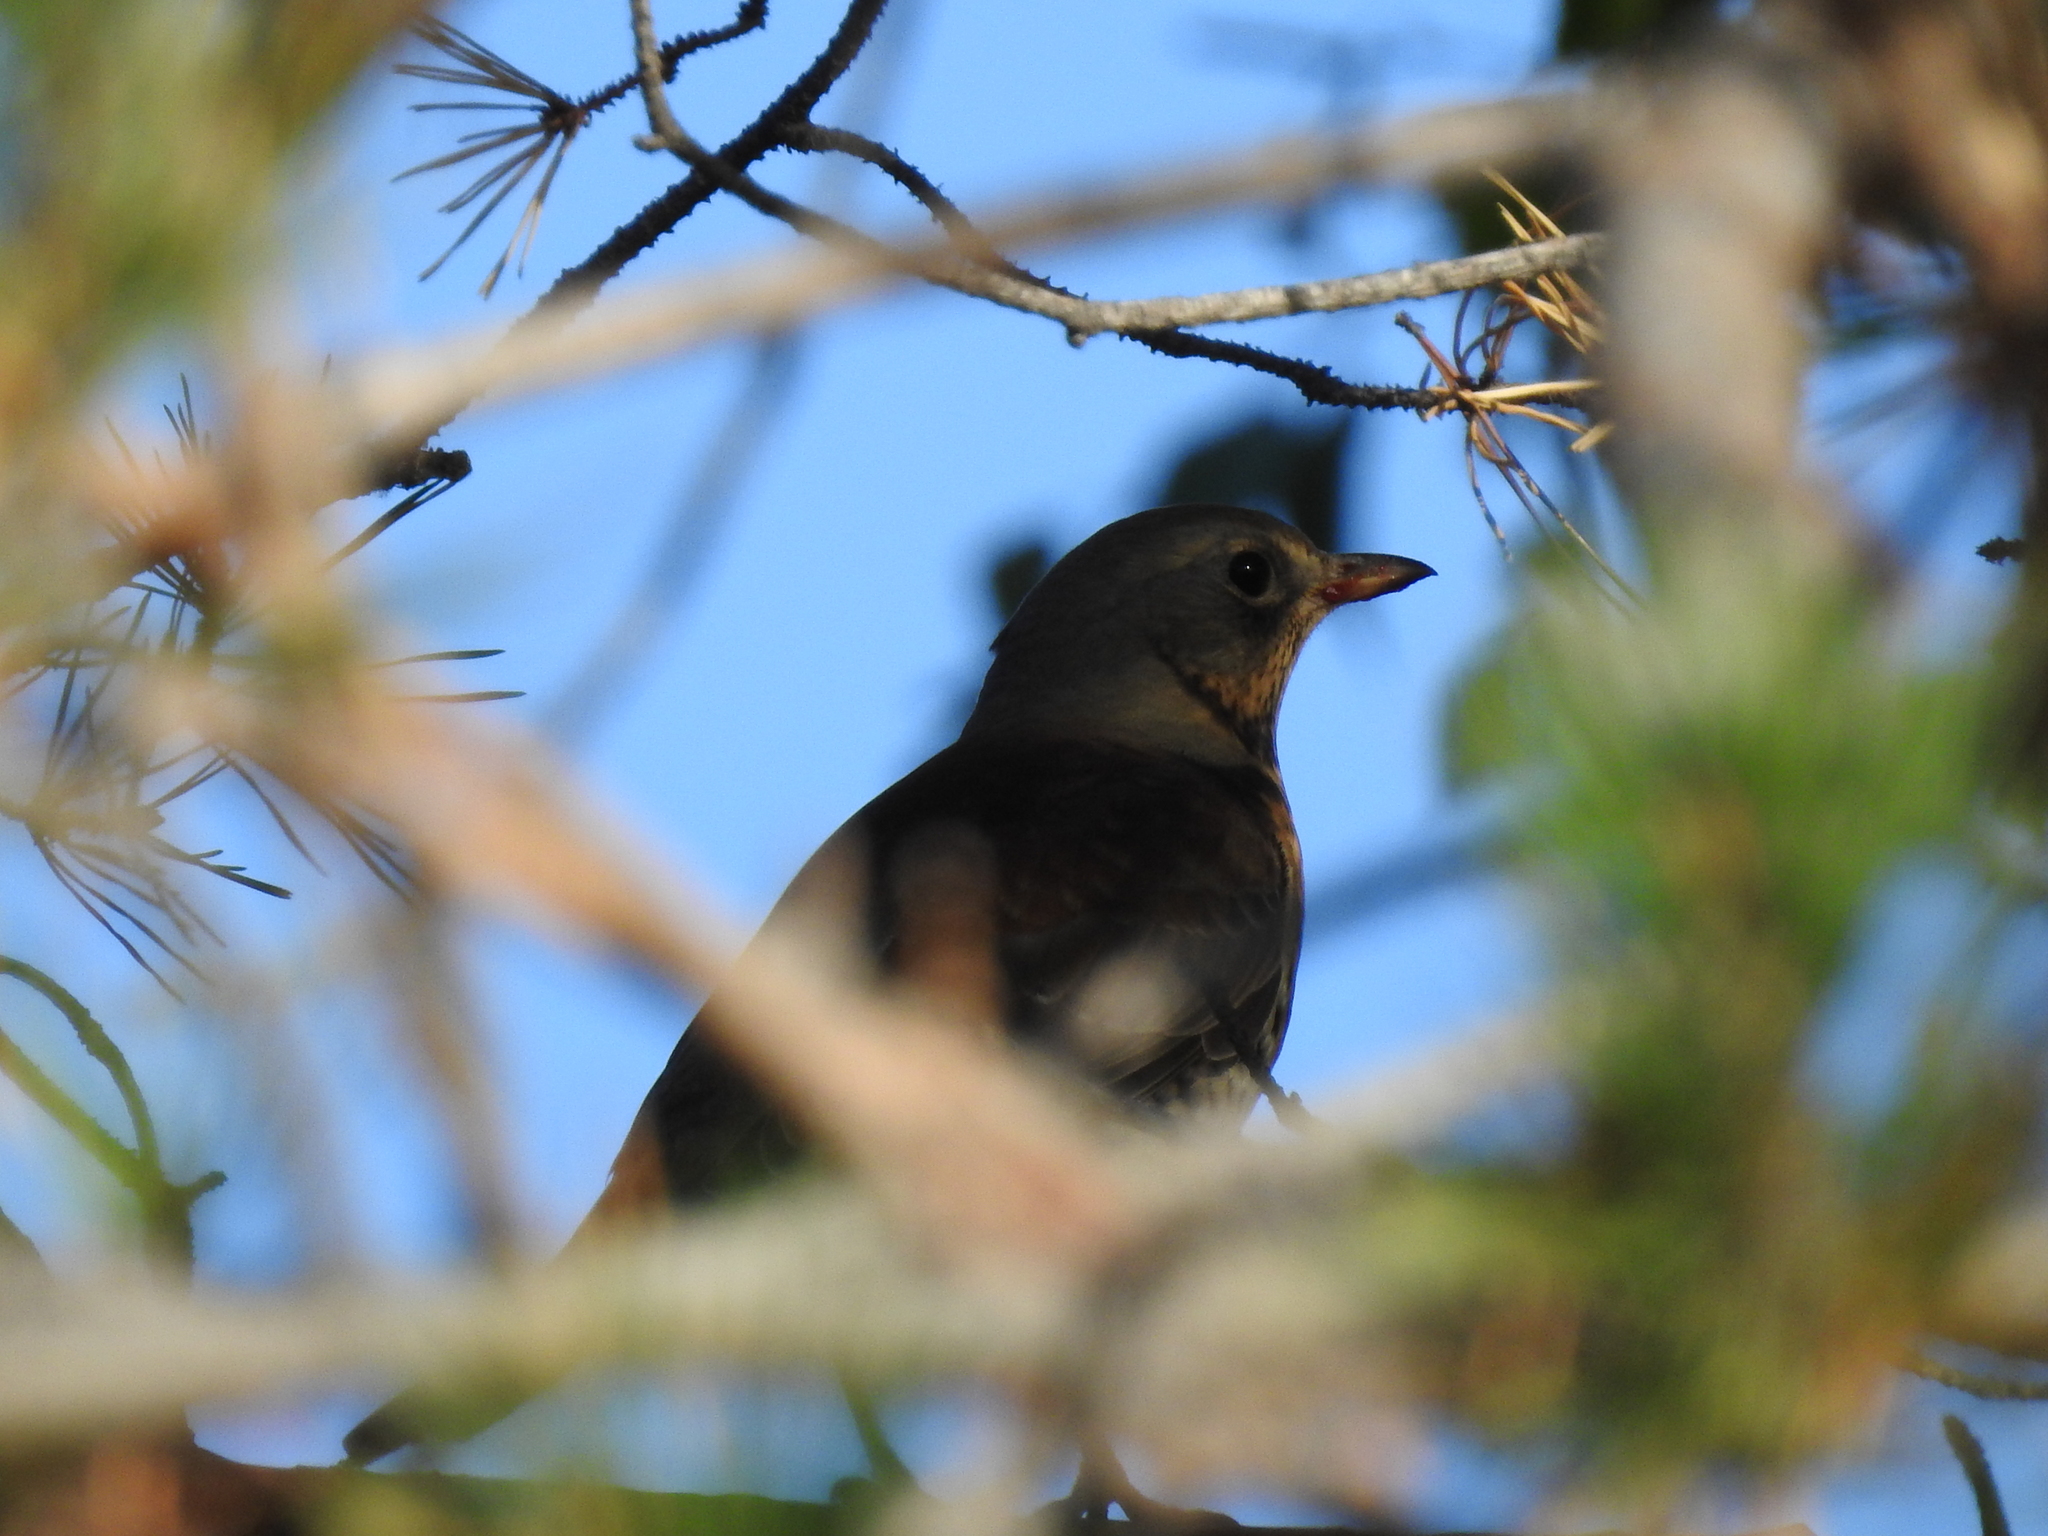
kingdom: Animalia
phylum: Chordata
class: Aves
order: Passeriformes
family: Turdidae
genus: Turdus
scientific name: Turdus pilaris
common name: Fieldfare
